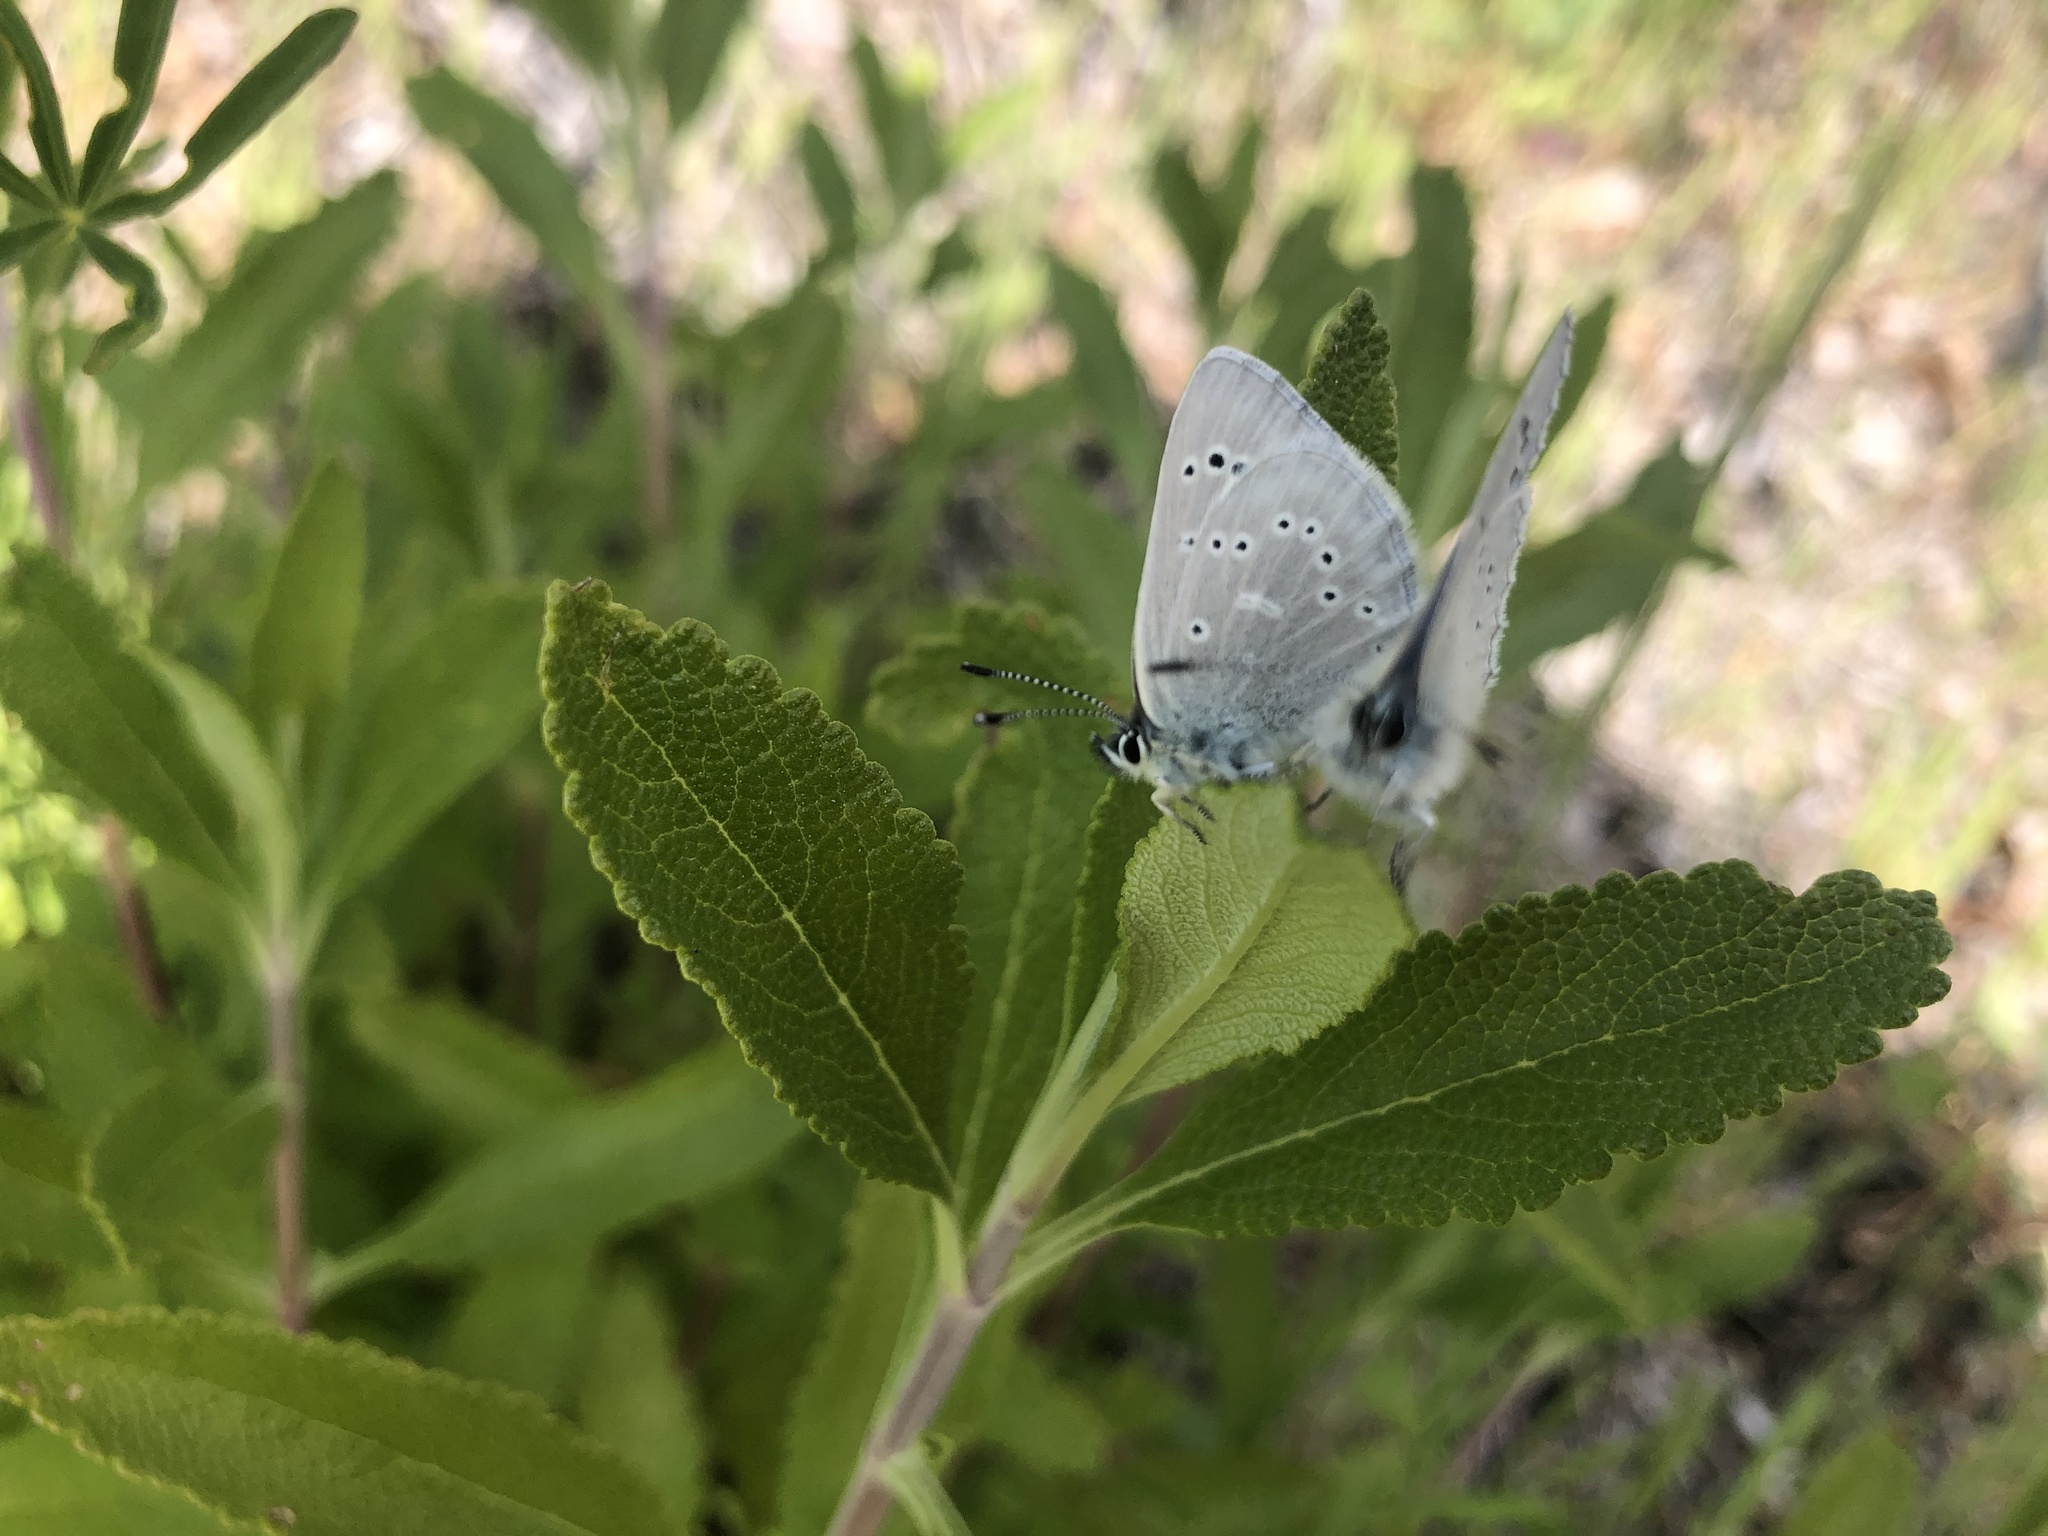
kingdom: Animalia
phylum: Arthropoda
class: Insecta
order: Lepidoptera
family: Lycaenidae
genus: Glaucopsyche
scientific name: Glaucopsyche lygdamus
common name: Silvery blue
